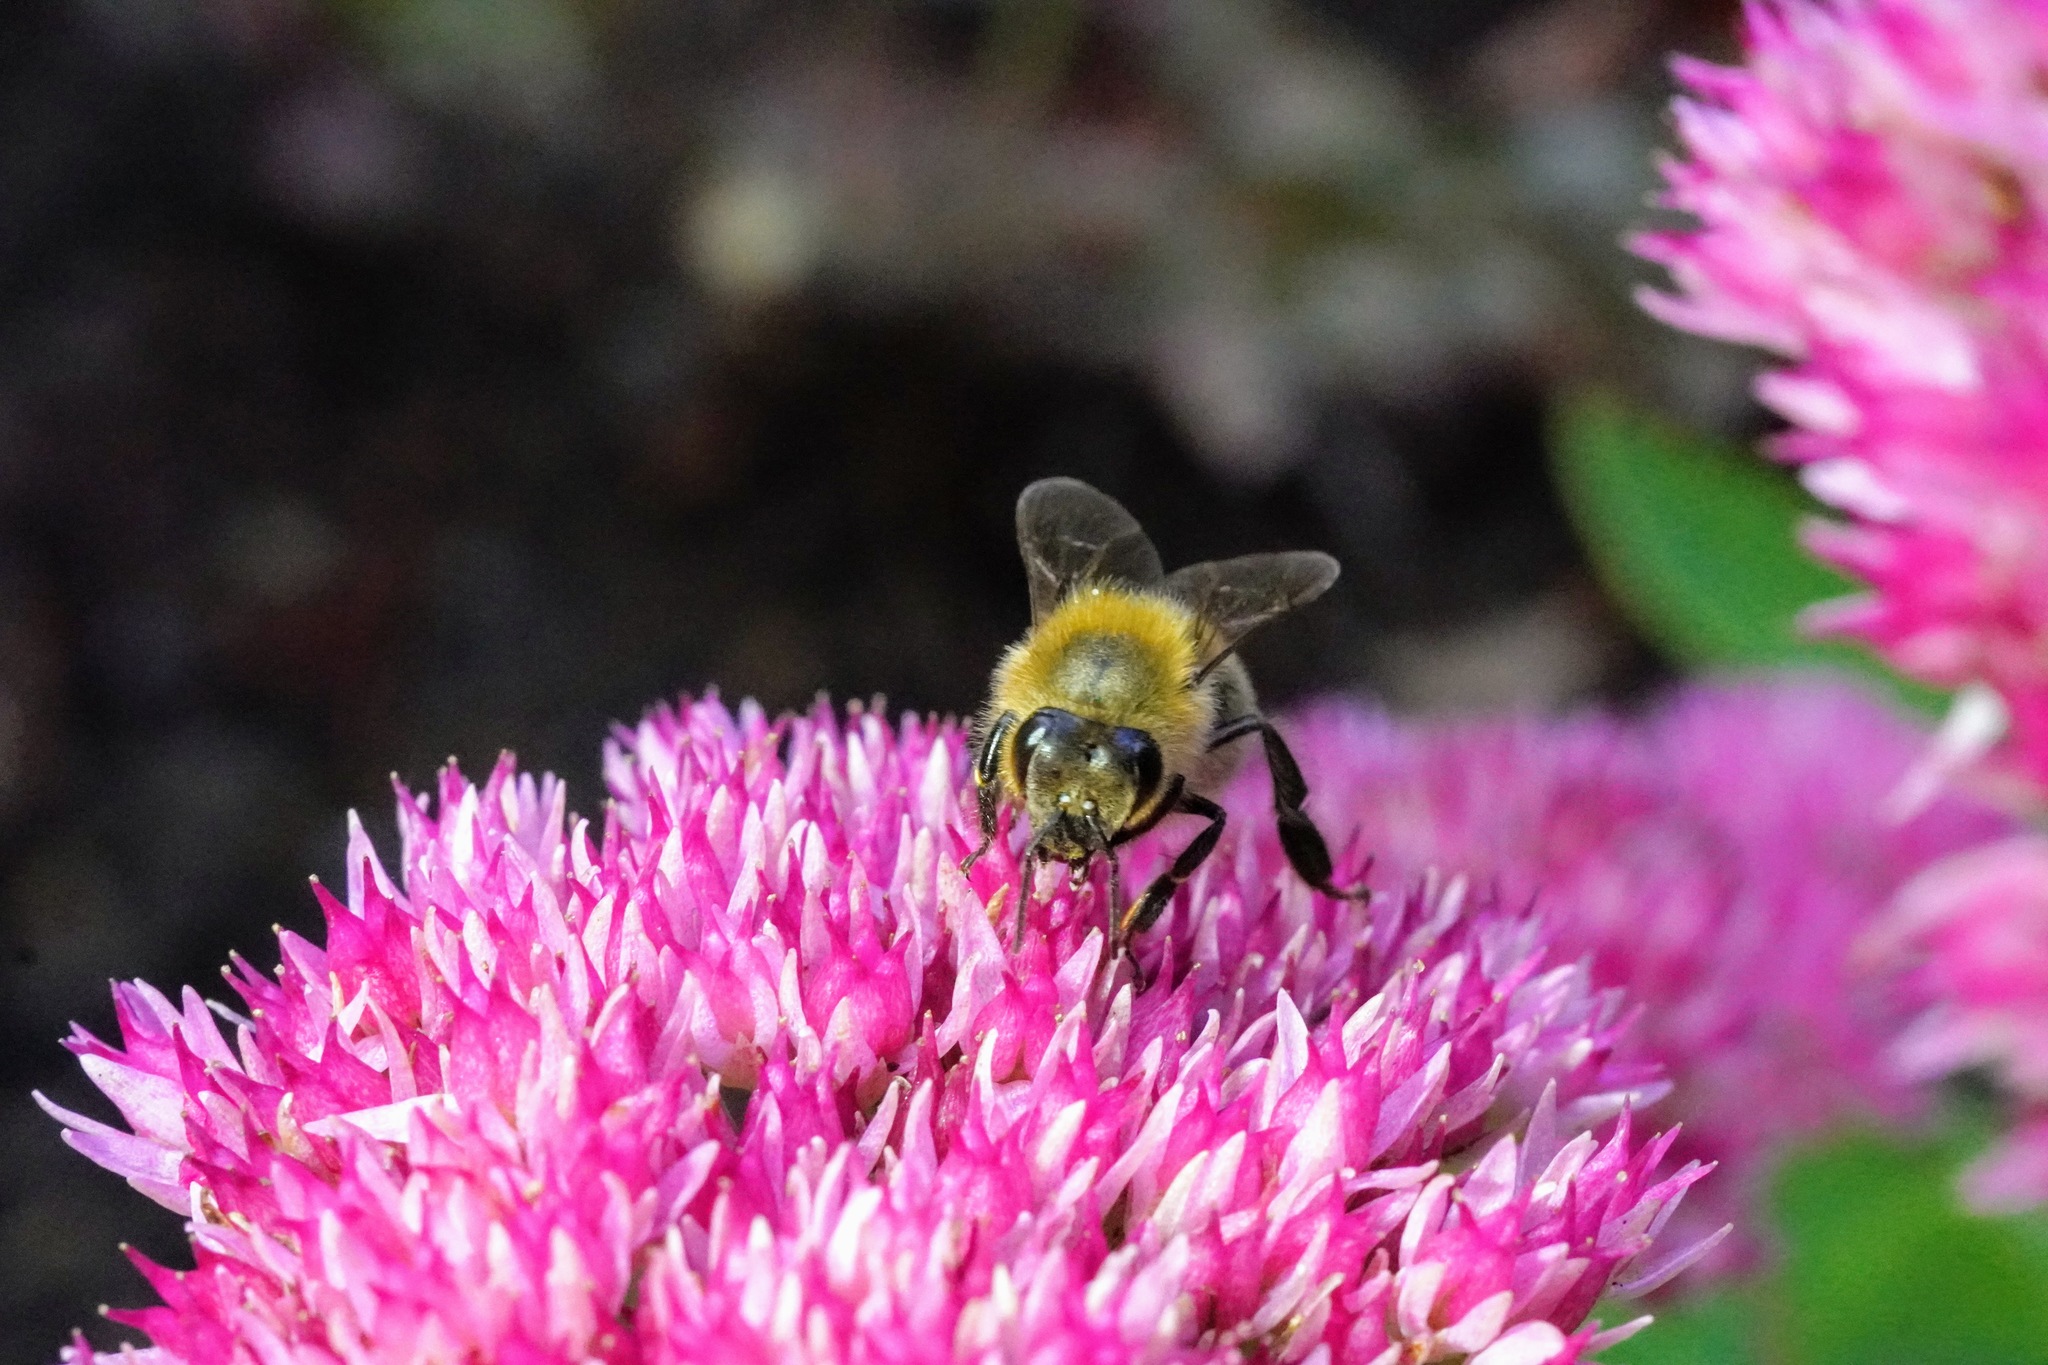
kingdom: Animalia
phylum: Arthropoda
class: Insecta
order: Hymenoptera
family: Apidae
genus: Apis
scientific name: Apis mellifera
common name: Honey bee
